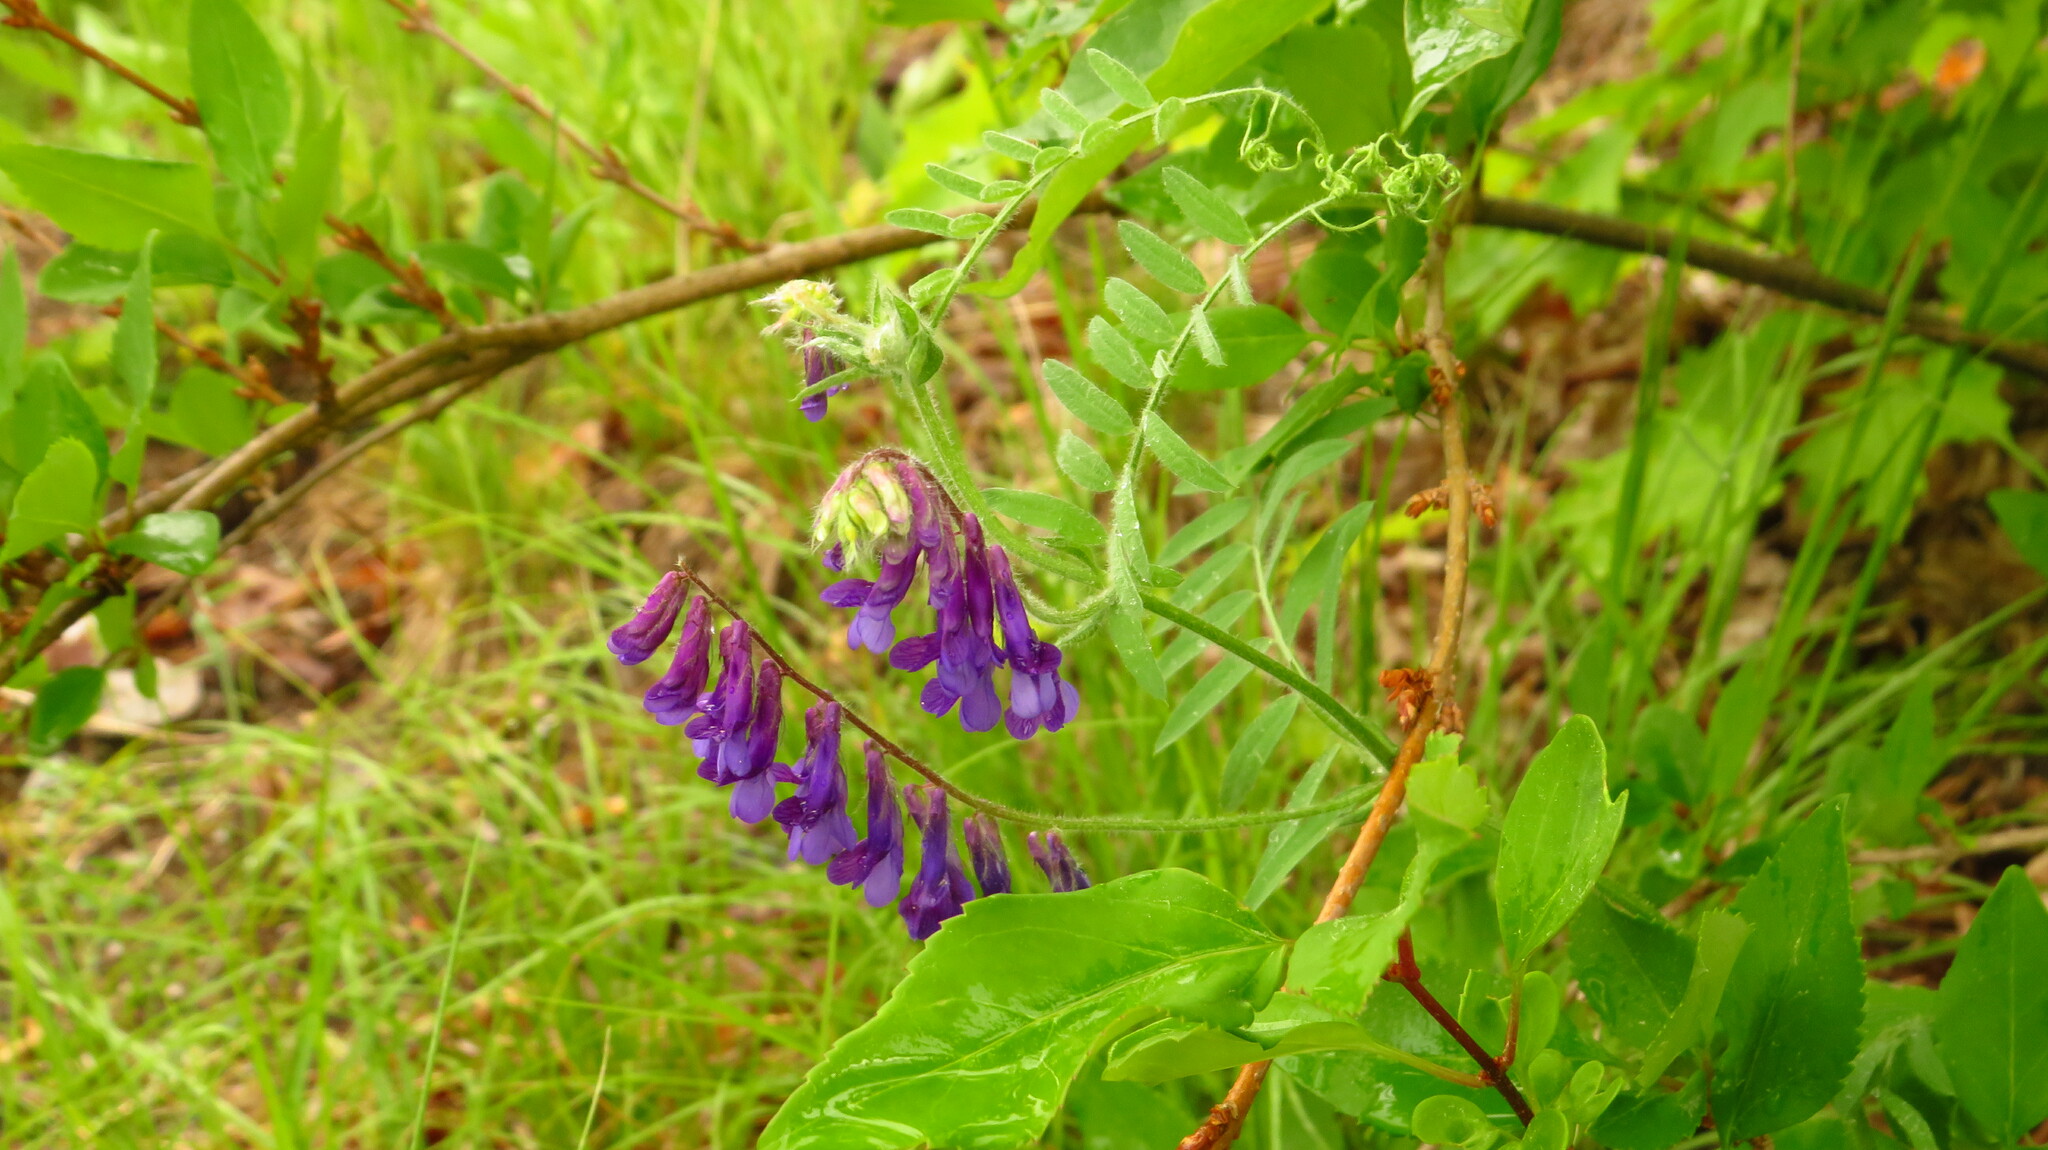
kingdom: Plantae
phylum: Tracheophyta
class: Magnoliopsida
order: Fabales
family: Fabaceae
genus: Vicia
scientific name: Vicia villosa
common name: Fodder vetch
